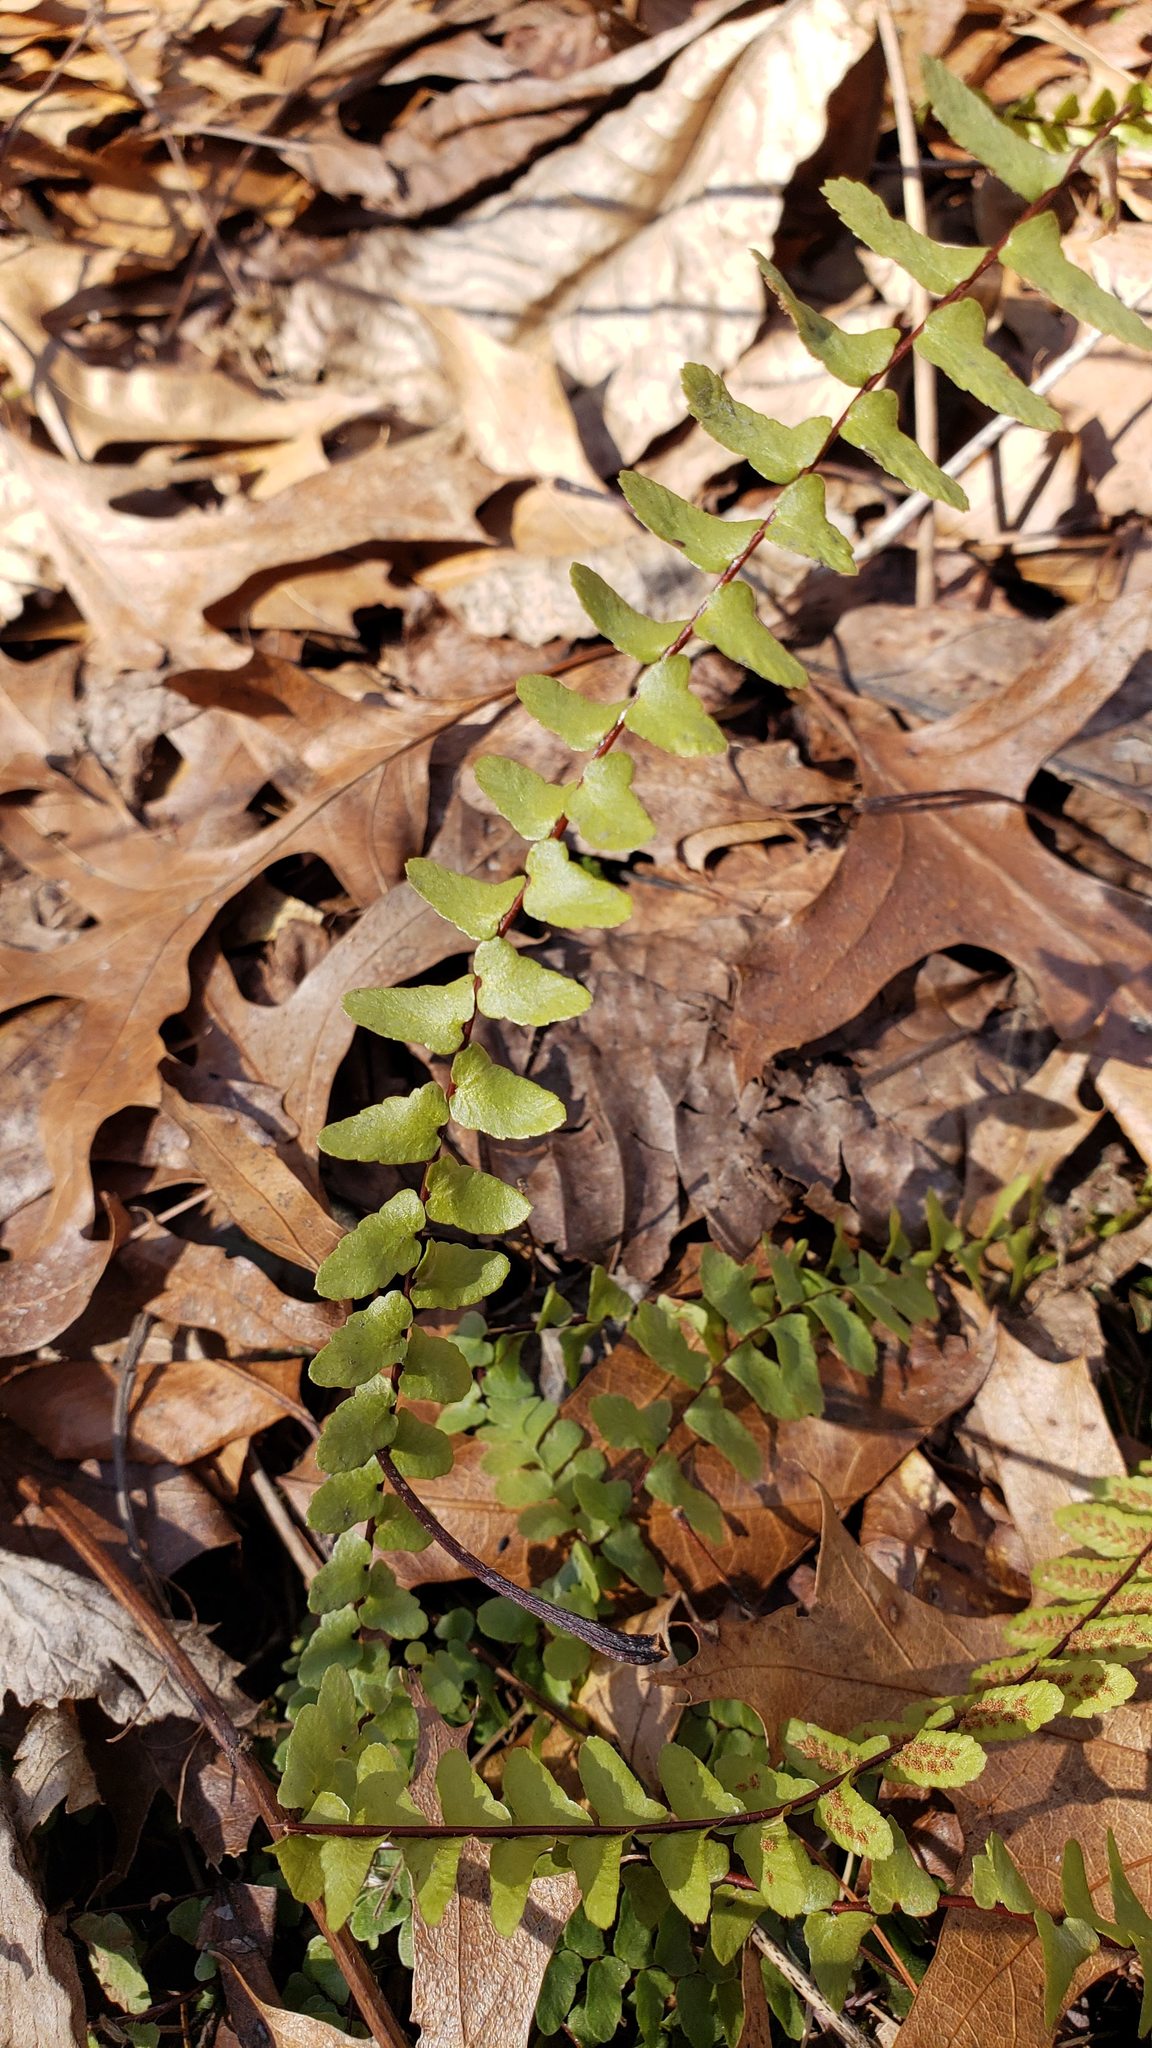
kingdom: Plantae
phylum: Tracheophyta
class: Polypodiopsida
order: Polypodiales
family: Aspleniaceae
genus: Asplenium
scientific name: Asplenium platyneuron
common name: Ebony spleenwort
